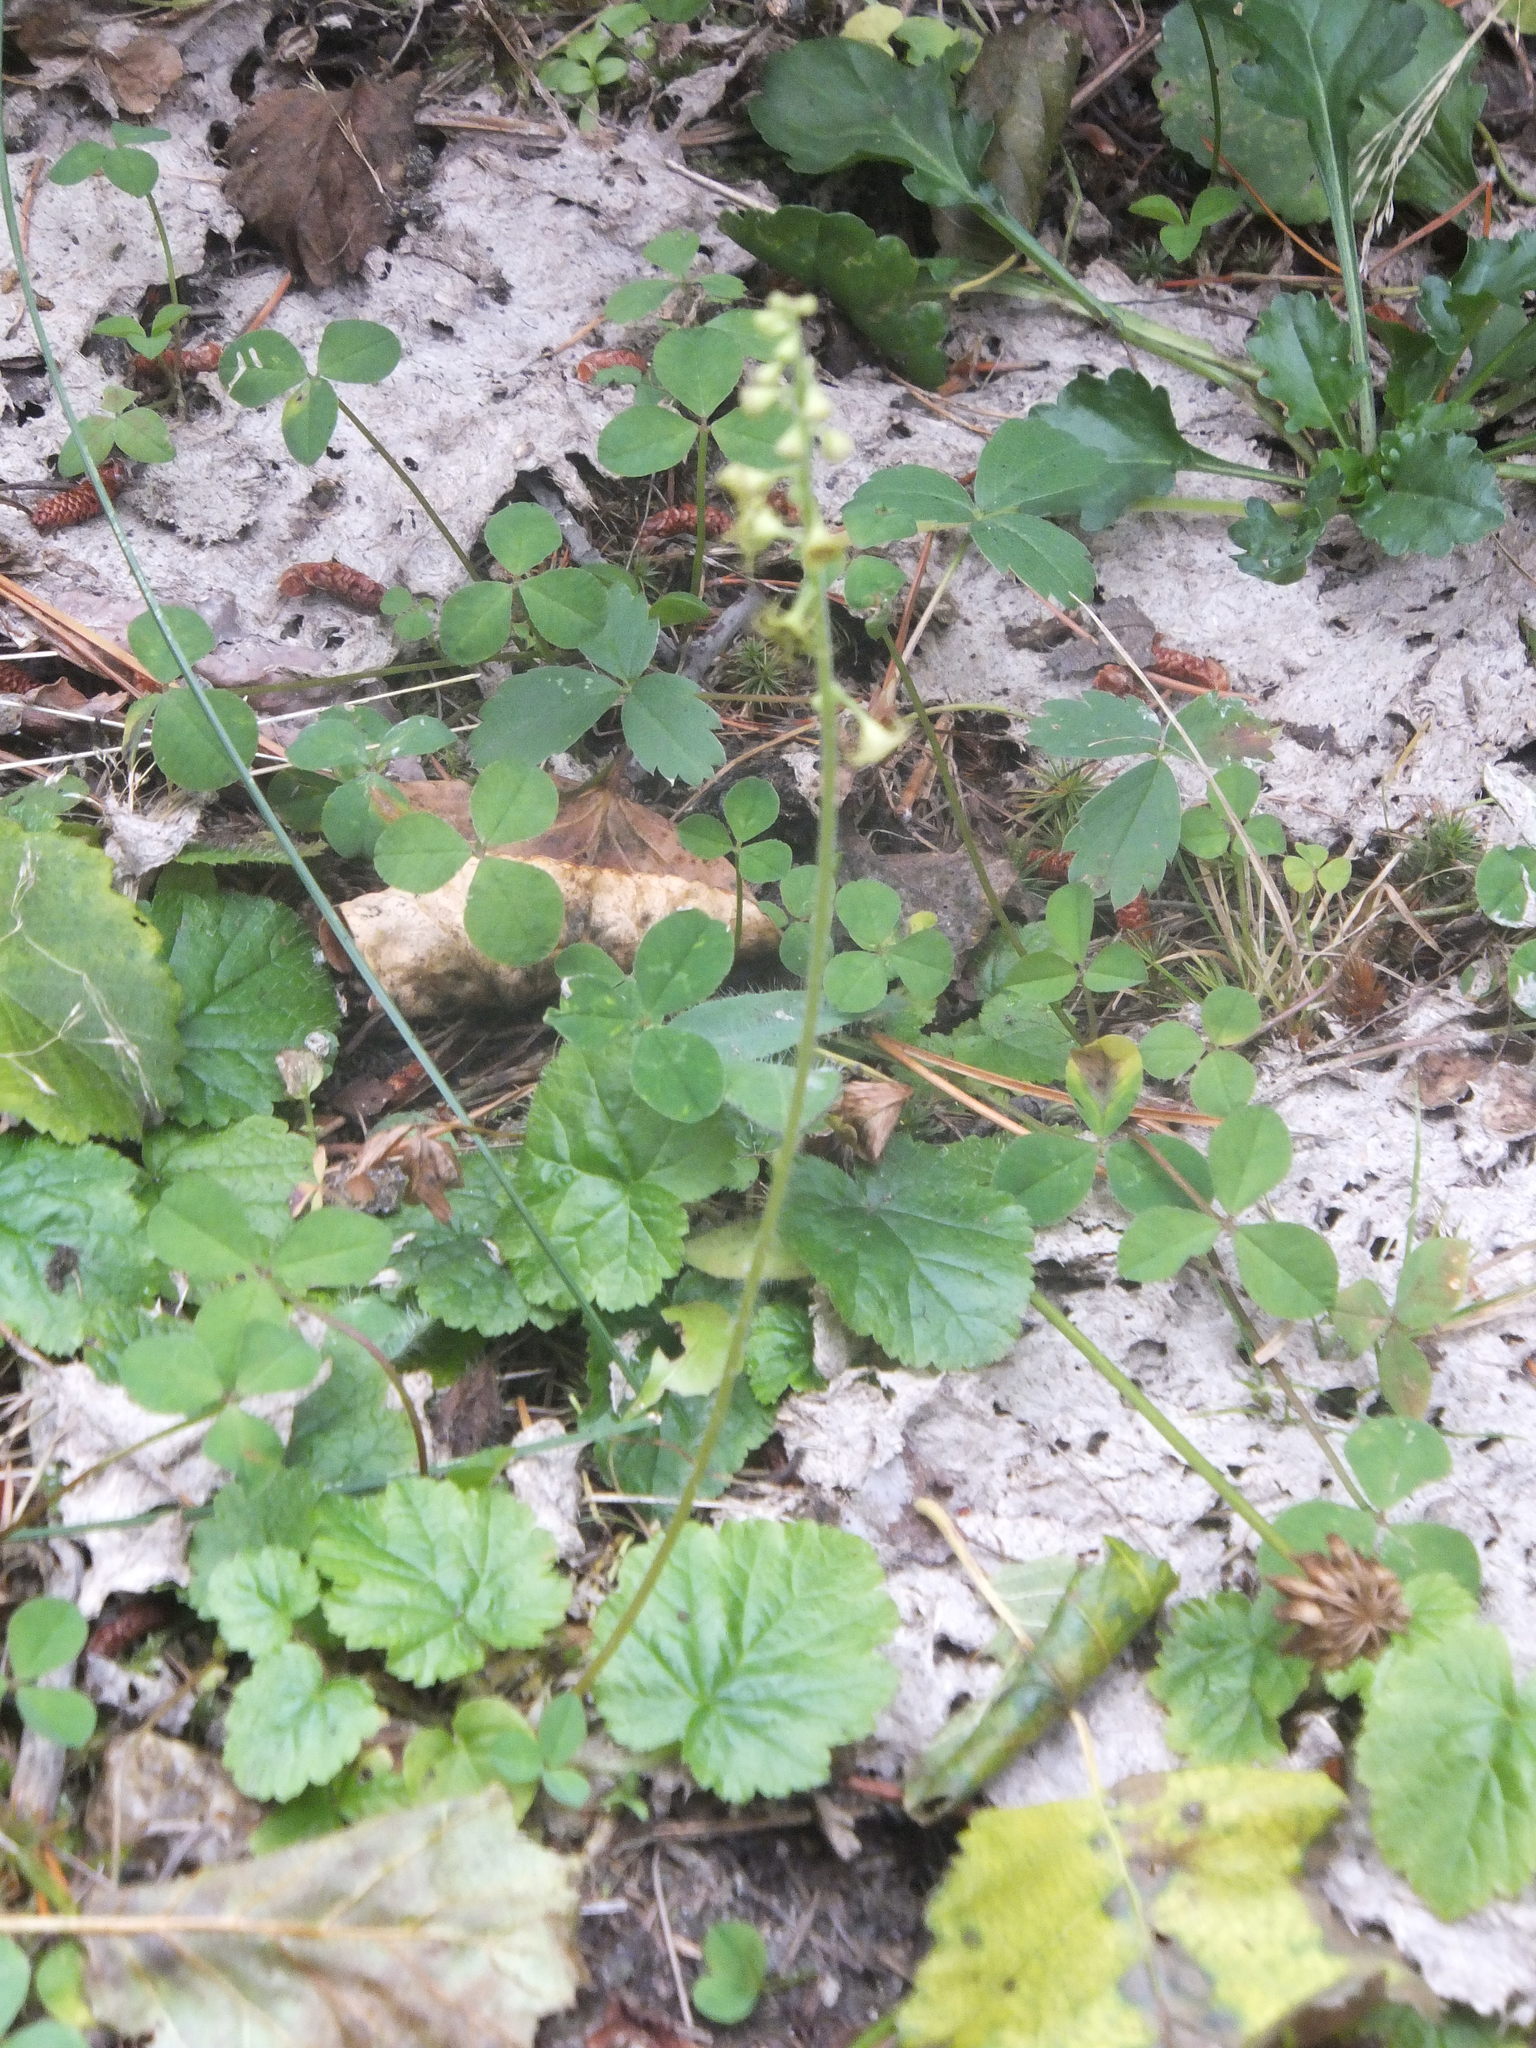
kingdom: Plantae
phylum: Tracheophyta
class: Magnoliopsida
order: Saxifragales
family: Saxifragaceae
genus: Pectiantia
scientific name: Pectiantia pentandra
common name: Alpine bishop's-cap
